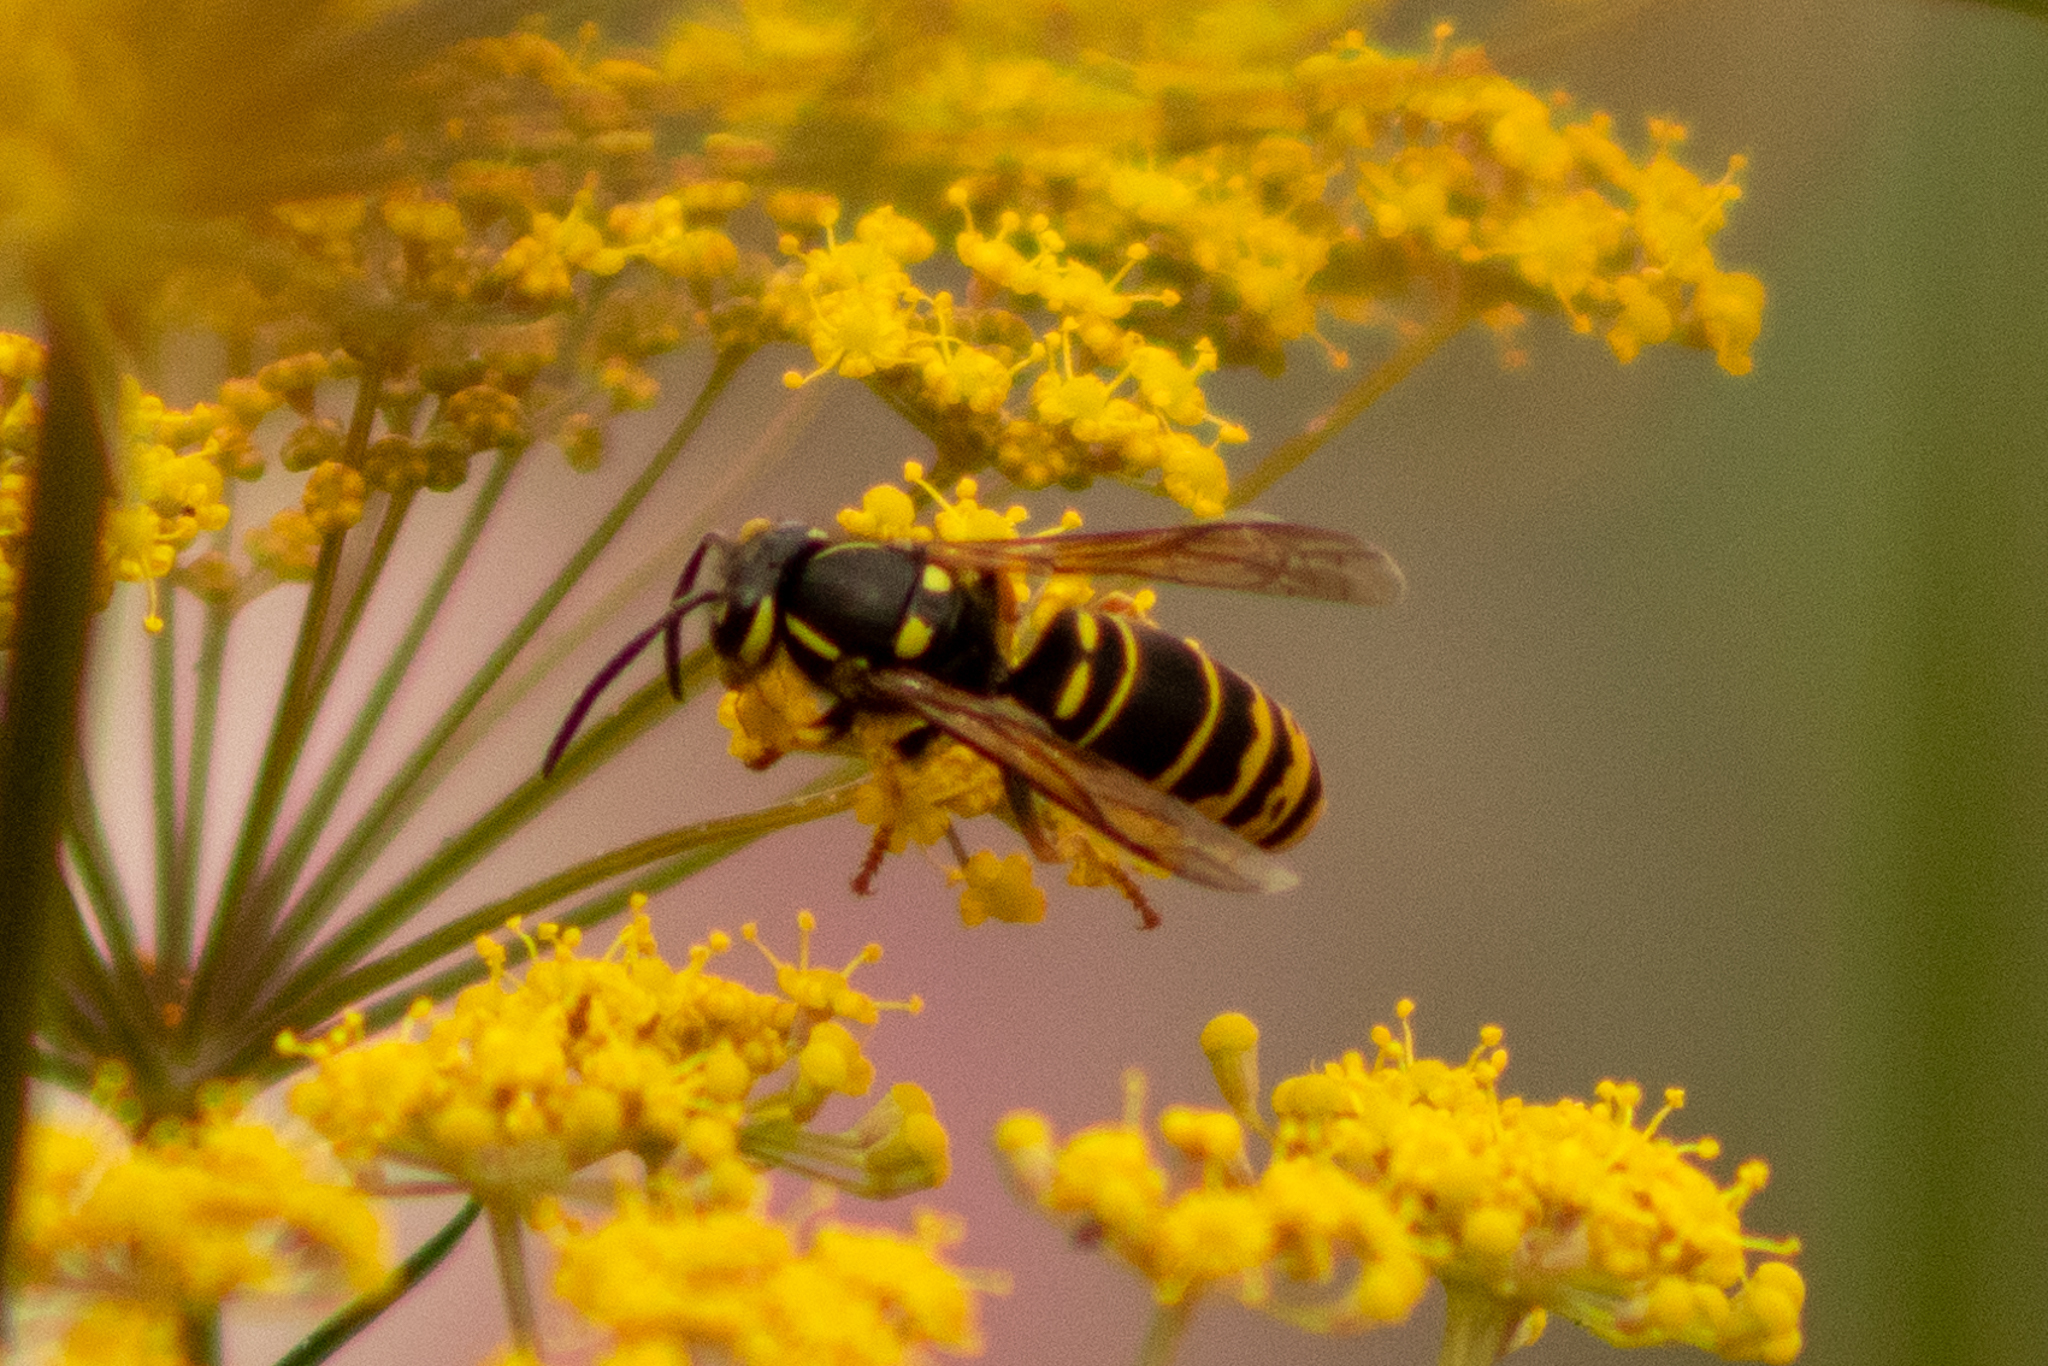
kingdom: Animalia
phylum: Arthropoda
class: Insecta
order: Hymenoptera
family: Vespidae
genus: Vespula
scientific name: Vespula vidua
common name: Widow yellowjacket
